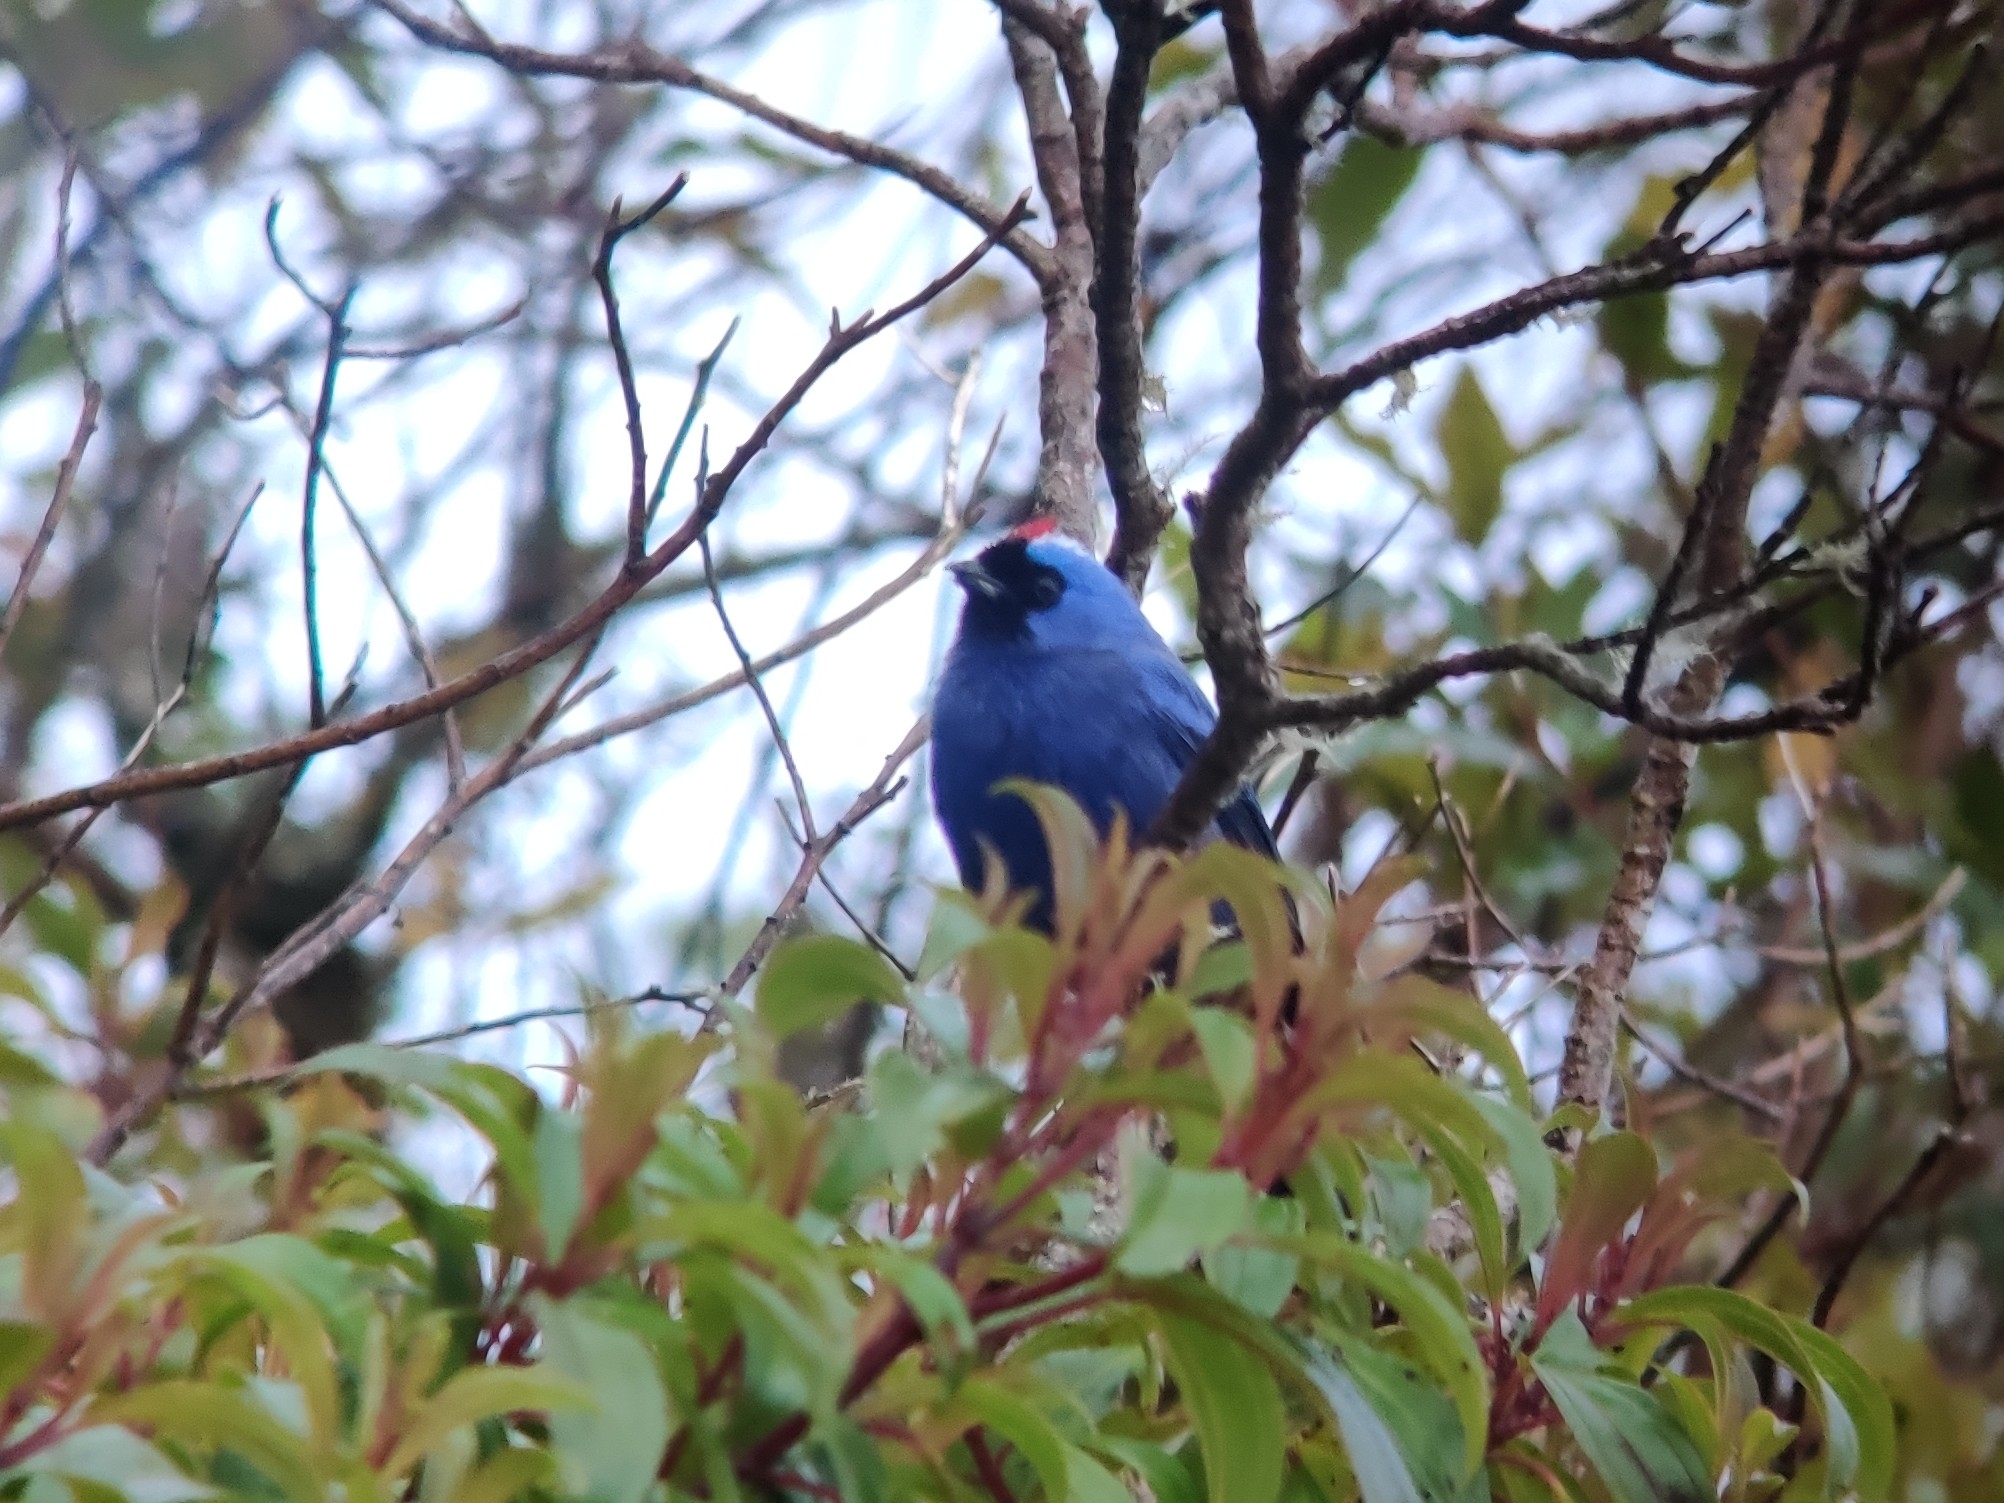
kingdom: Animalia
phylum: Chordata
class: Aves
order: Passeriformes
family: Thraupidae
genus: Stephanophorus
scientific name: Stephanophorus diadematus
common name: Diademed tanager
